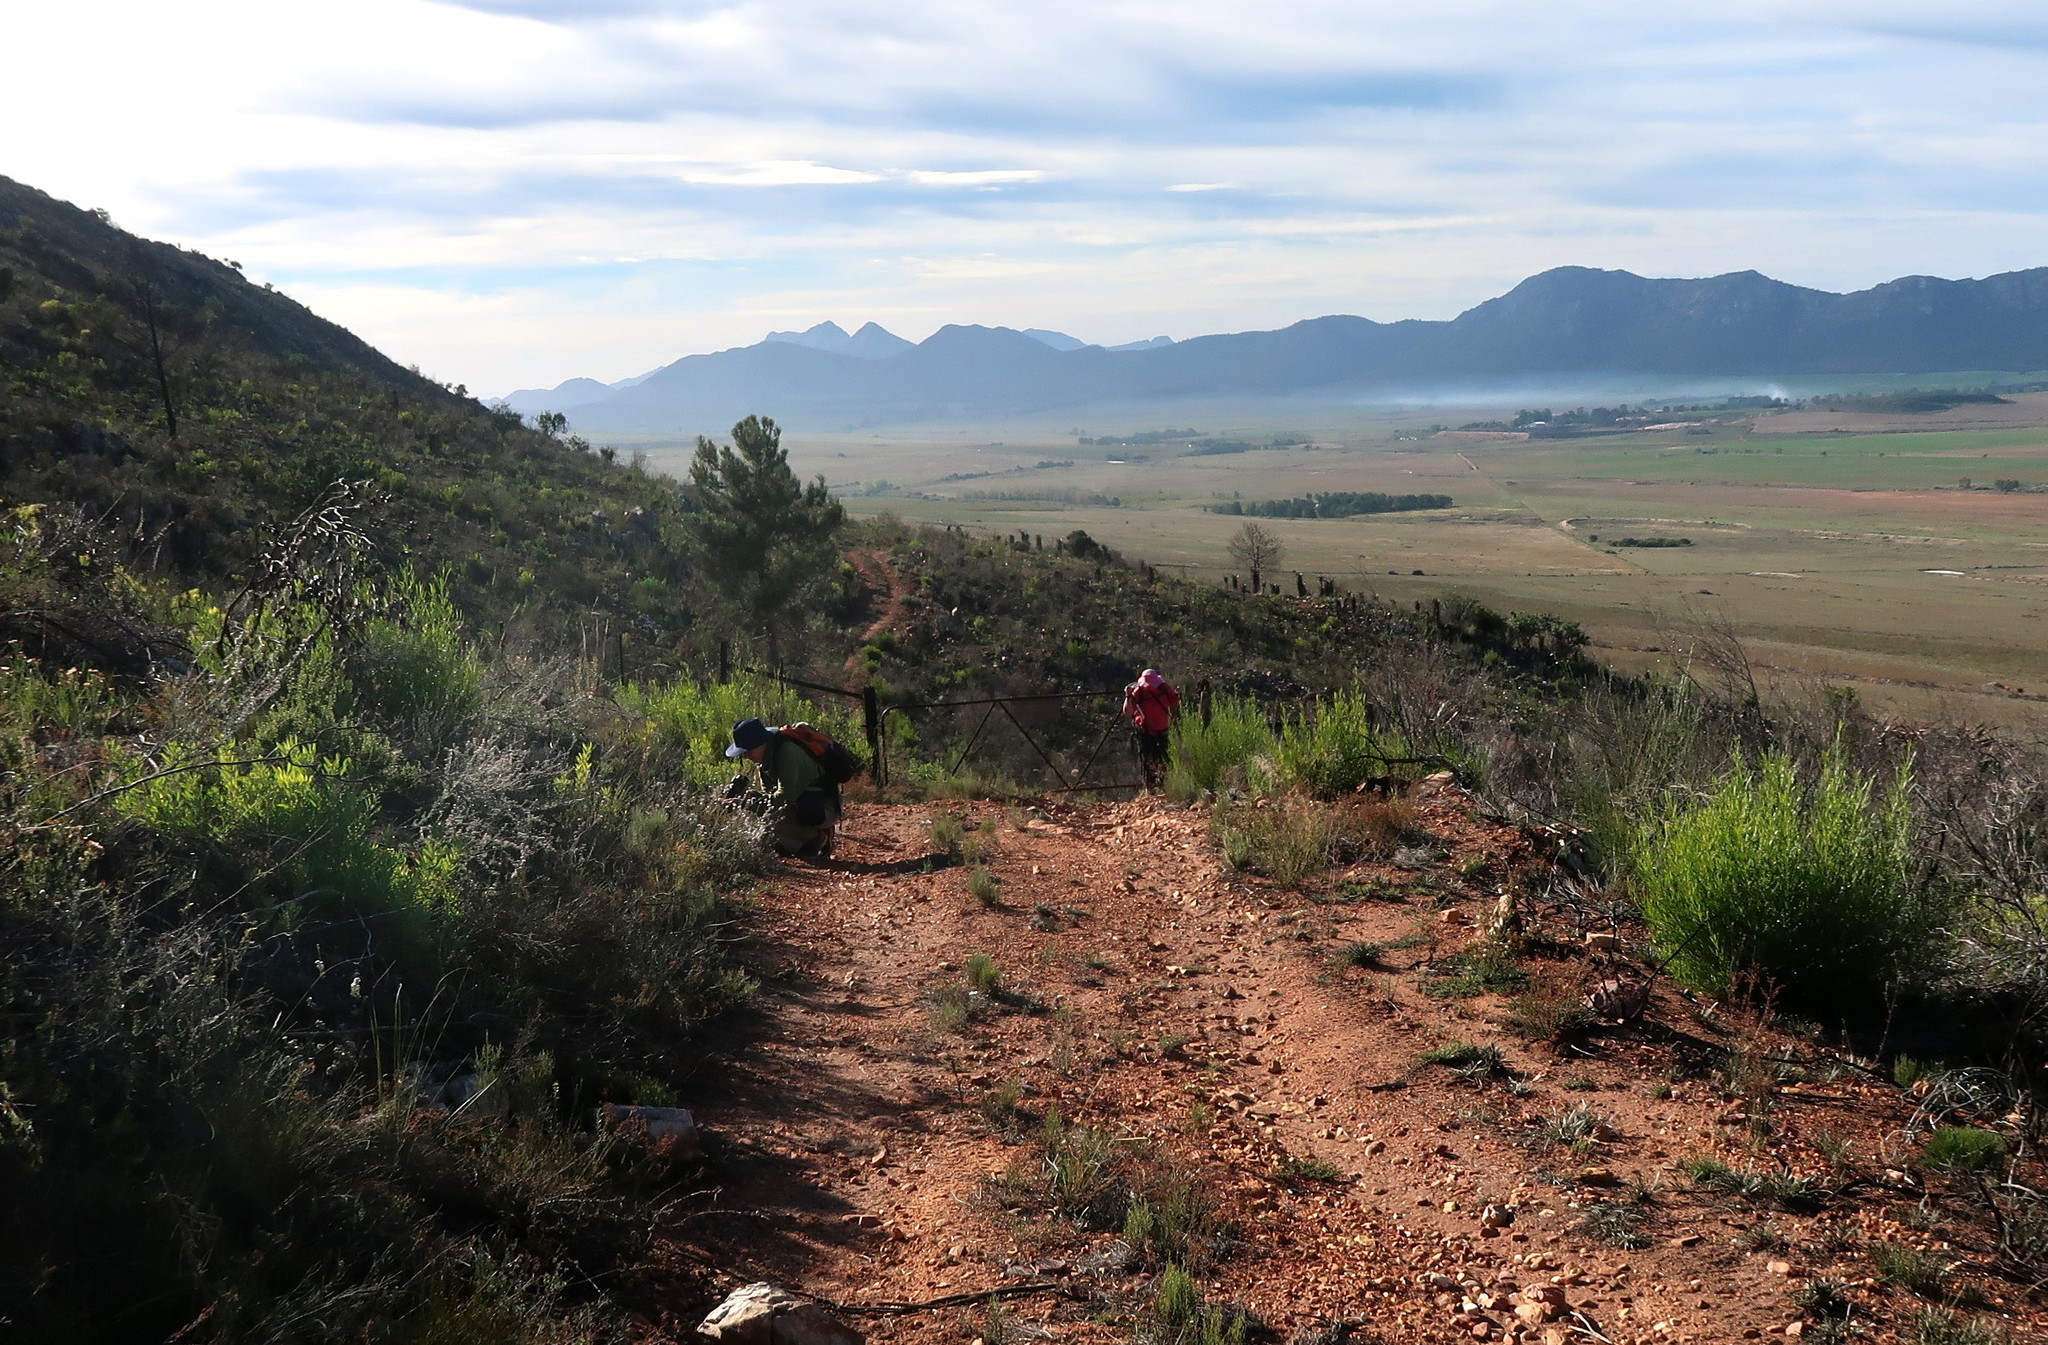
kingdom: Plantae
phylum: Tracheophyta
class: Magnoliopsida
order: Sapindales
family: Sapindaceae
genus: Dodonaea
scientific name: Dodonaea viscosa
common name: Hopbush
